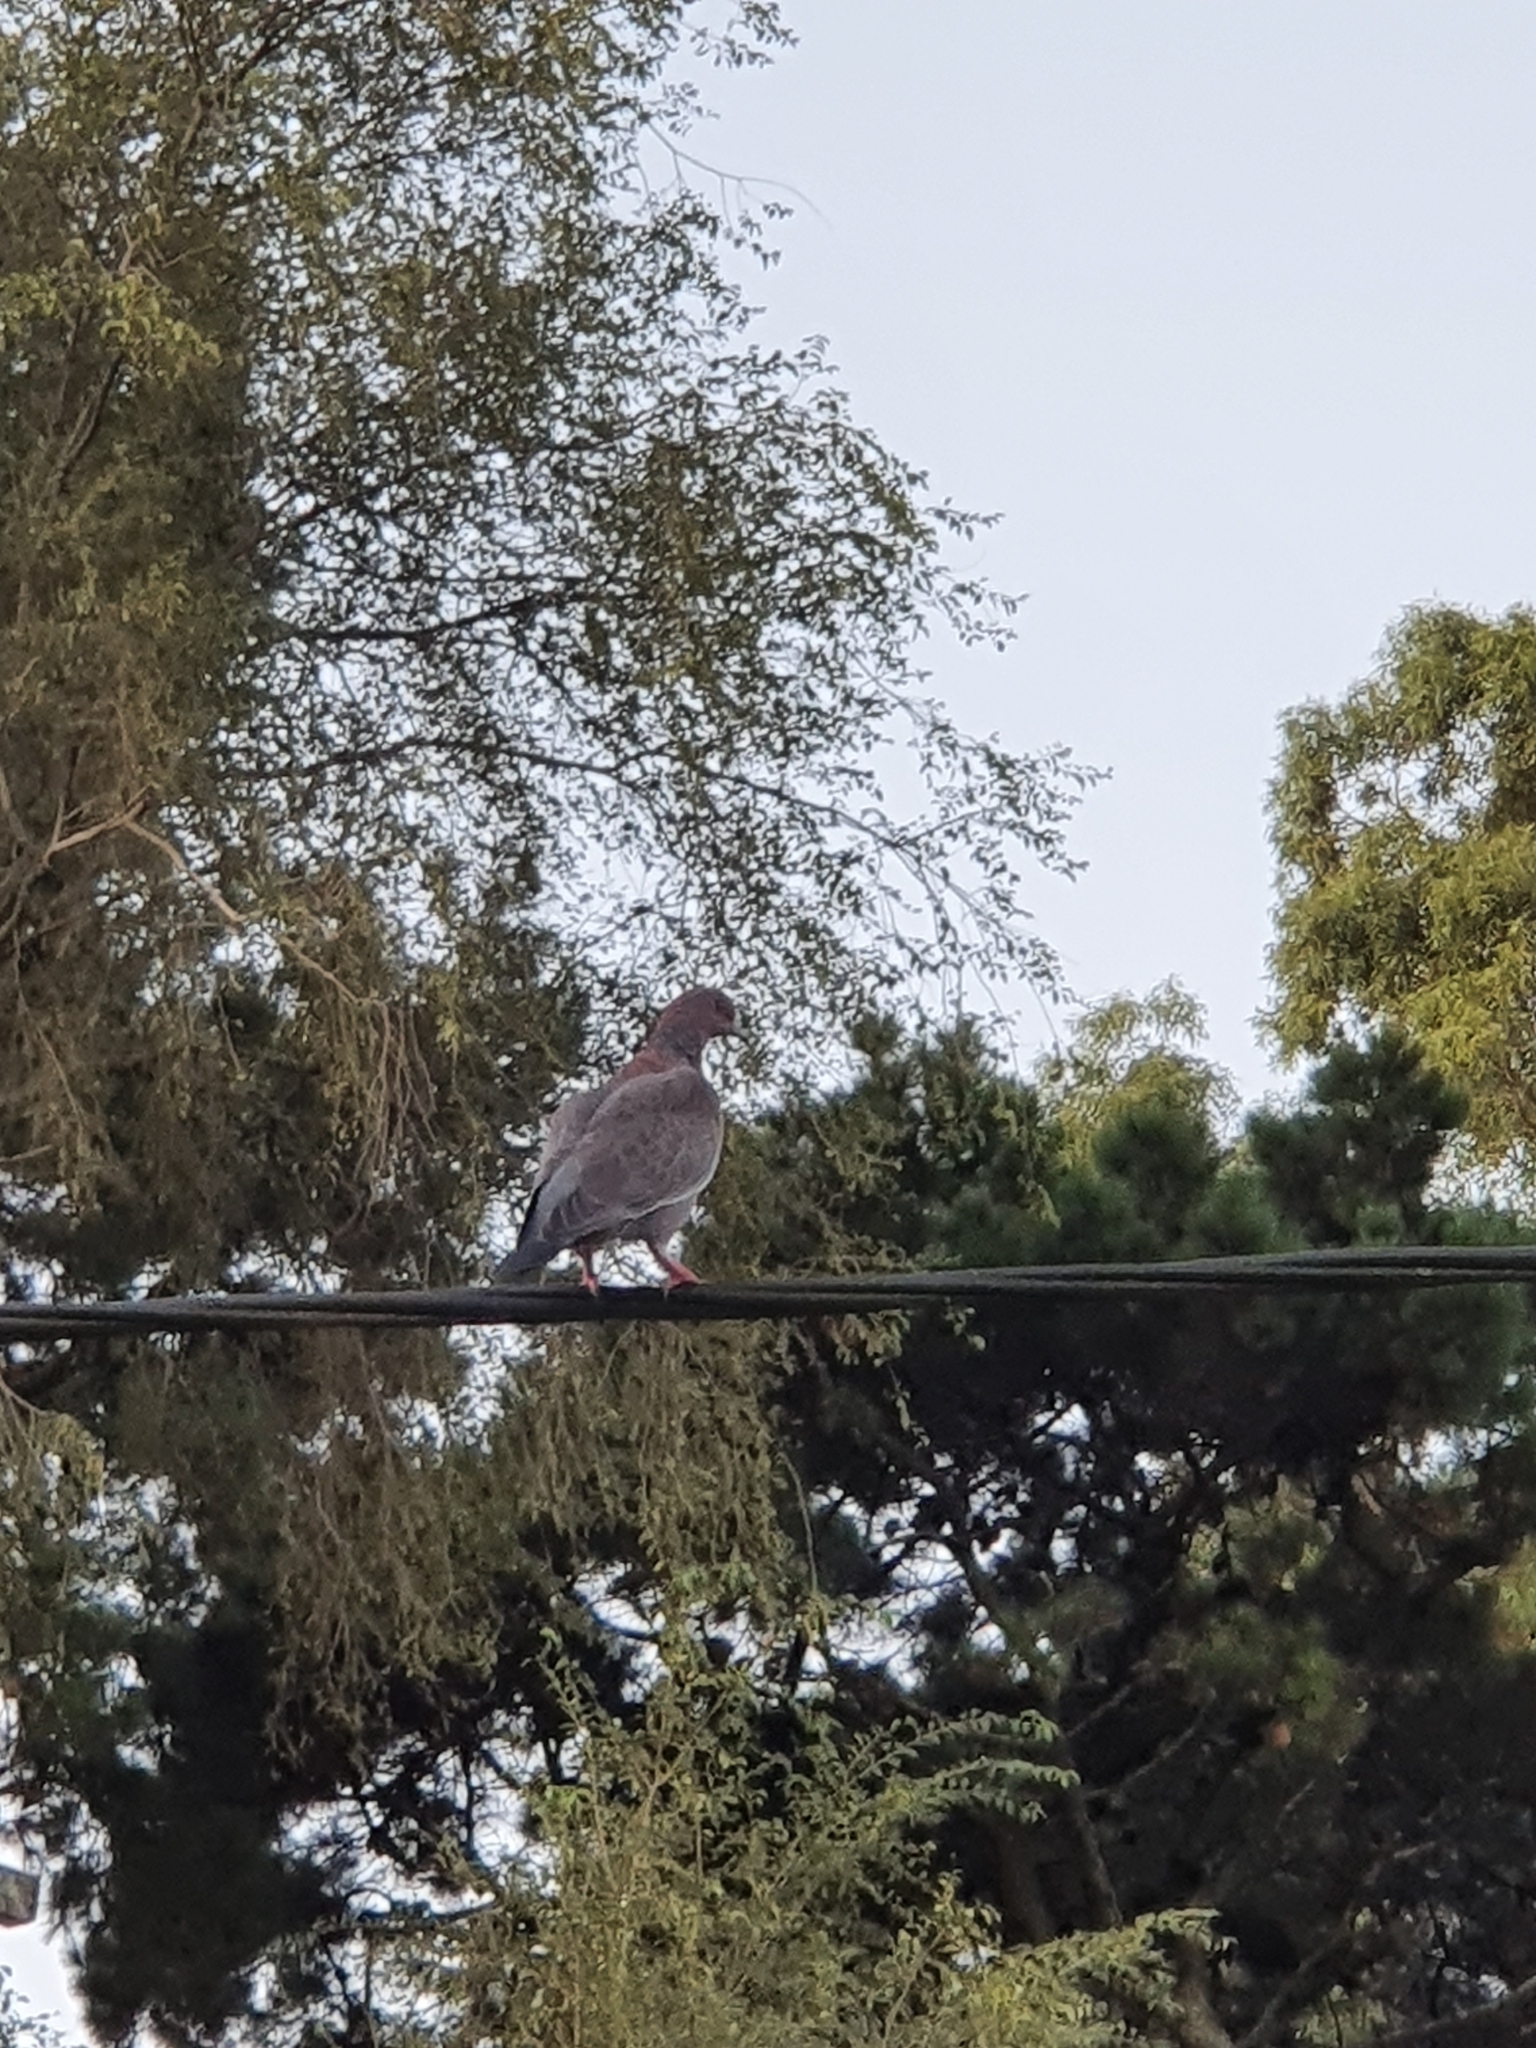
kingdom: Animalia
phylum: Chordata
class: Aves
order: Columbiformes
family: Columbidae
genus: Patagioenas
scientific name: Patagioenas picazuro
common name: Picazuro pigeon
